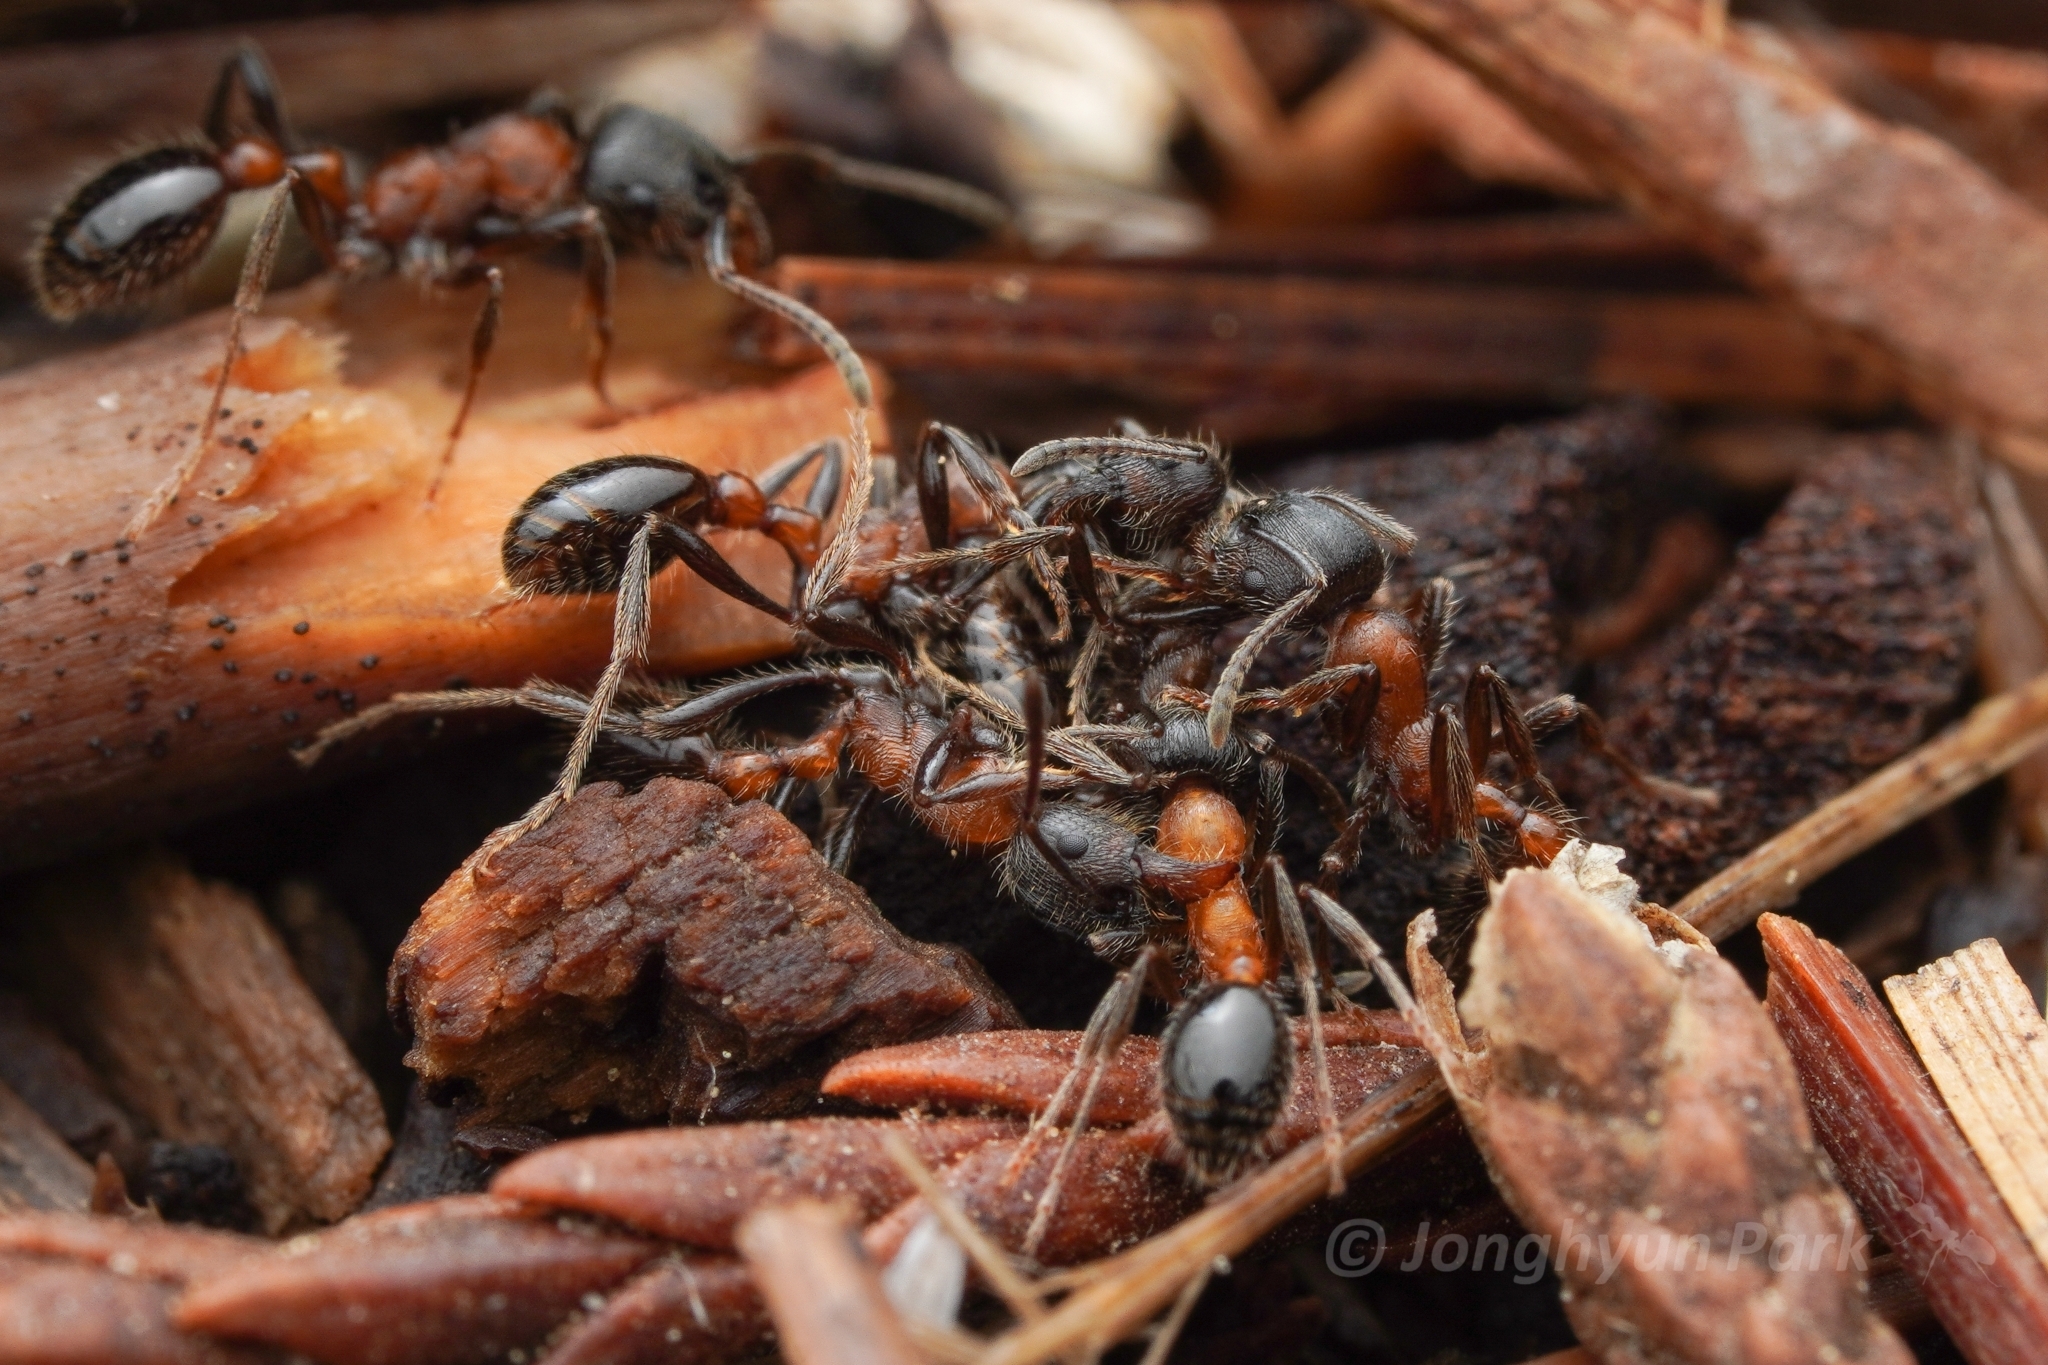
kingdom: Animalia
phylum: Arthropoda
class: Insecta
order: Hymenoptera
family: Formicidae
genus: Manica
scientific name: Manica bradleyi
